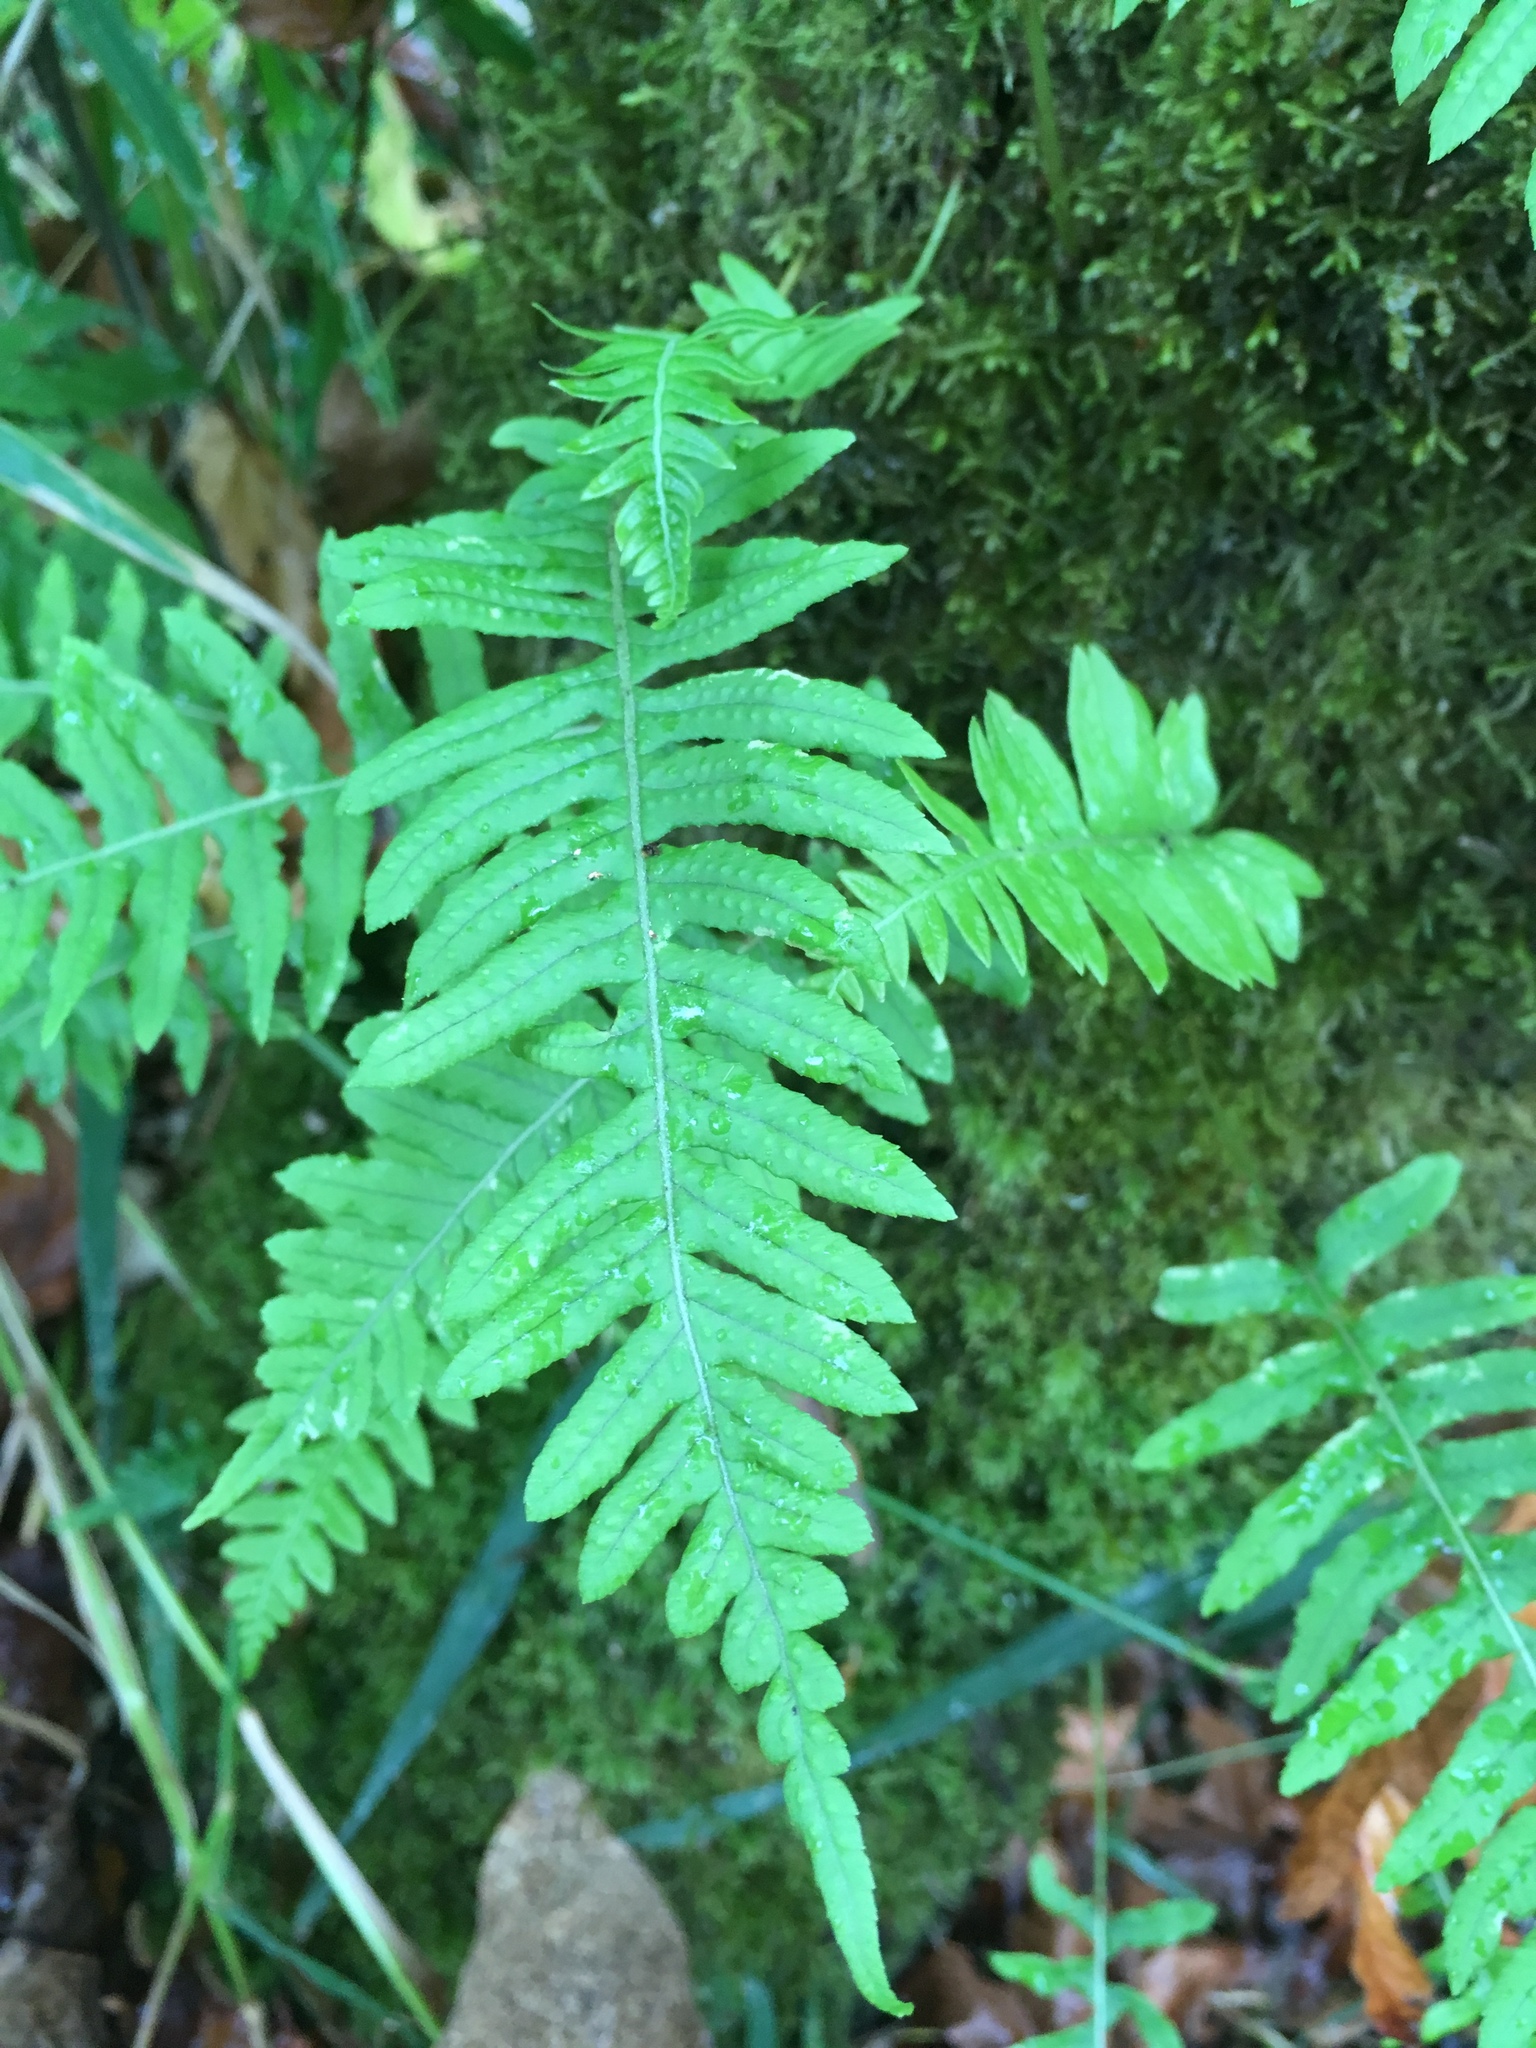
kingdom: Plantae
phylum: Tracheophyta
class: Polypodiopsida
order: Polypodiales
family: Polypodiaceae
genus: Polypodium
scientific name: Polypodium glycyrrhiza
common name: Licorice fern
